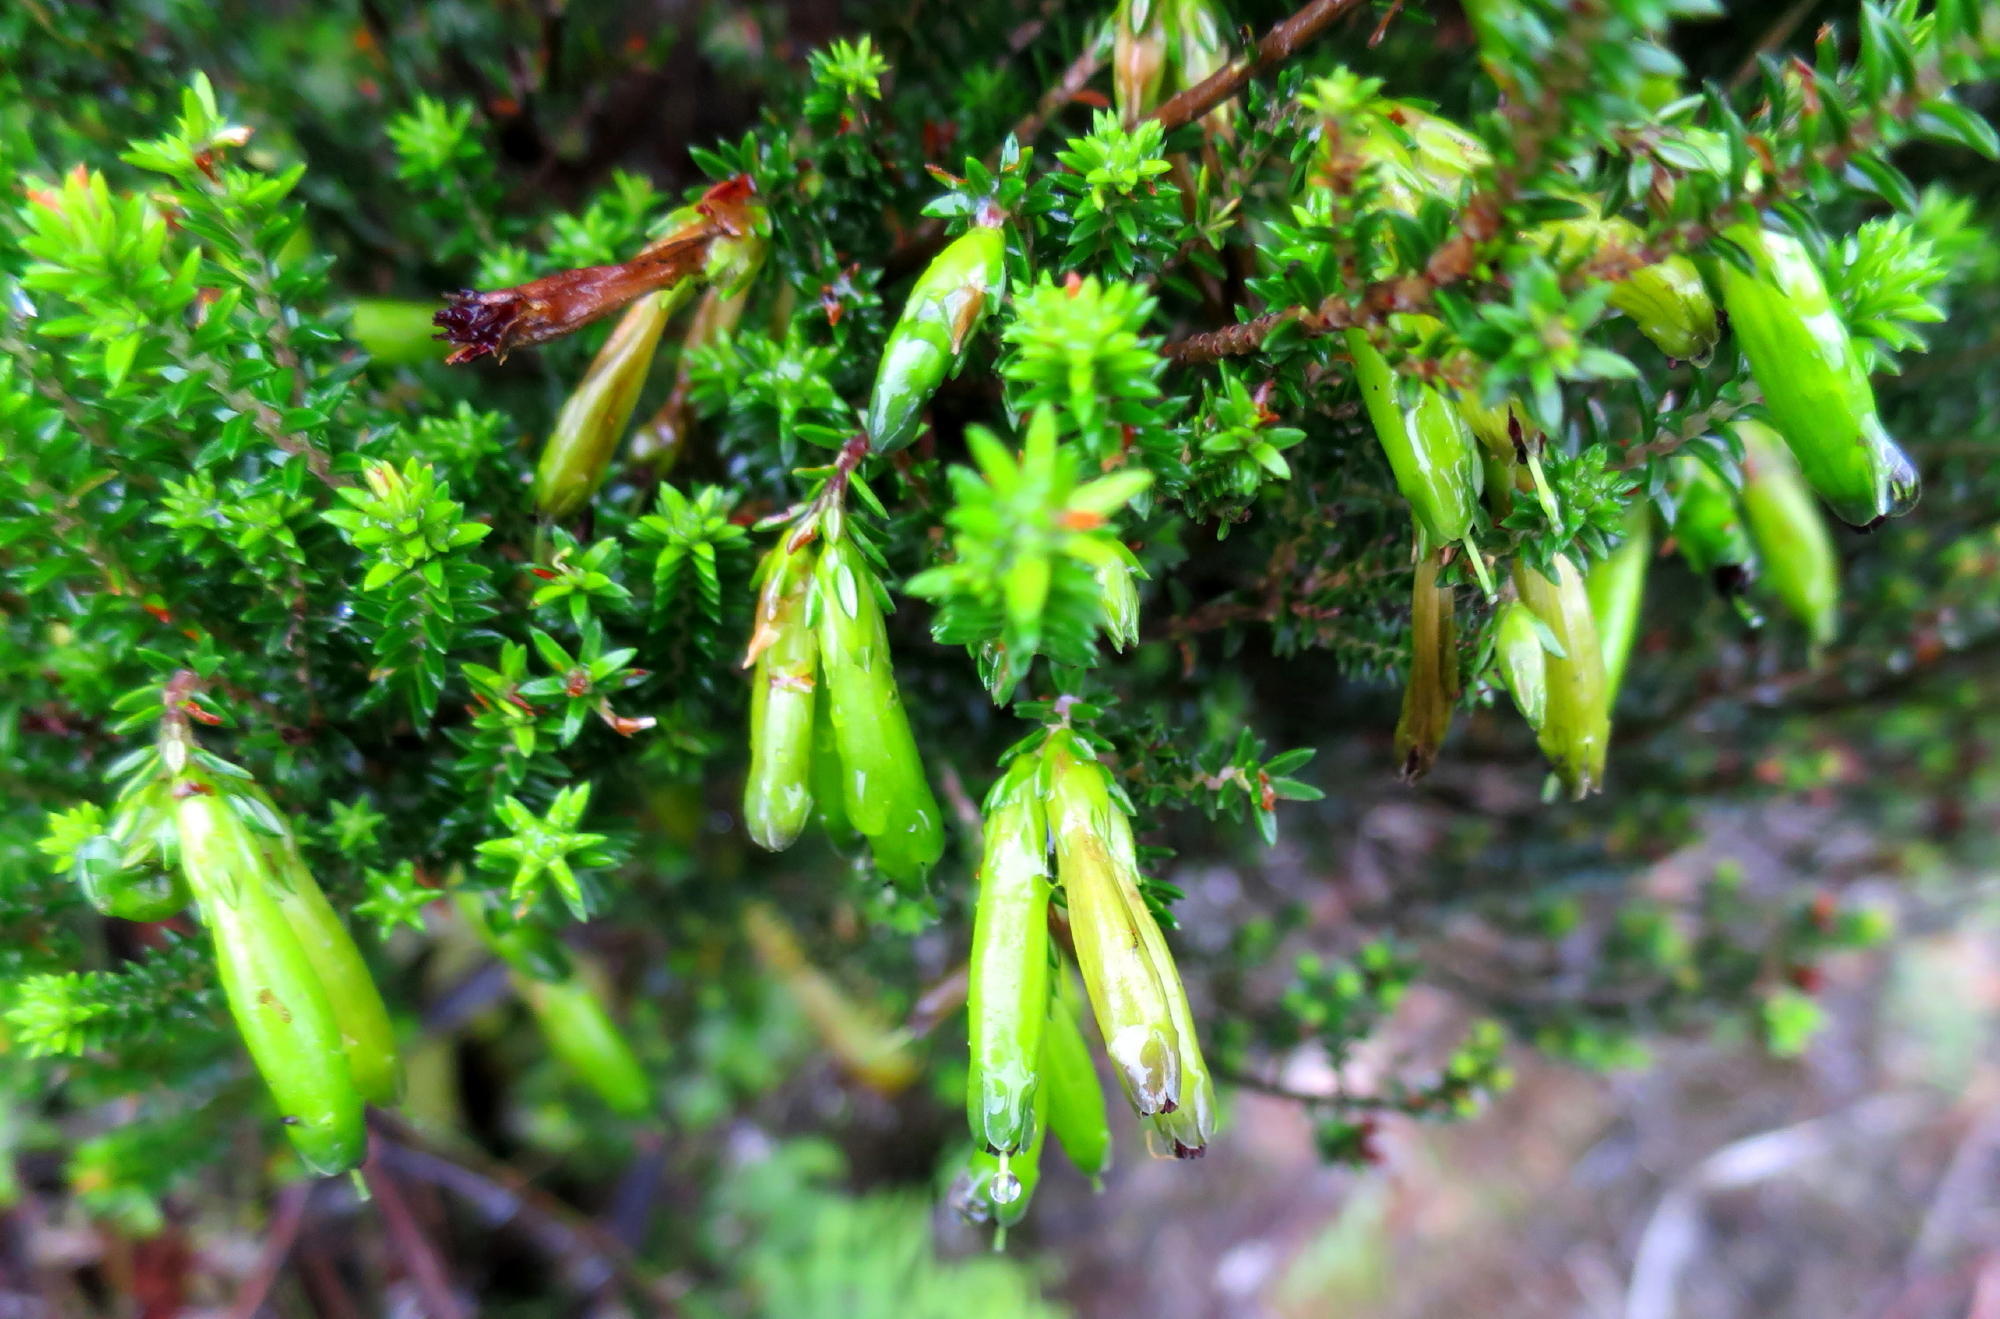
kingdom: Plantae
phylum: Tracheophyta
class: Magnoliopsida
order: Ericales
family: Ericaceae
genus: Erica
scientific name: Erica viridiflora
